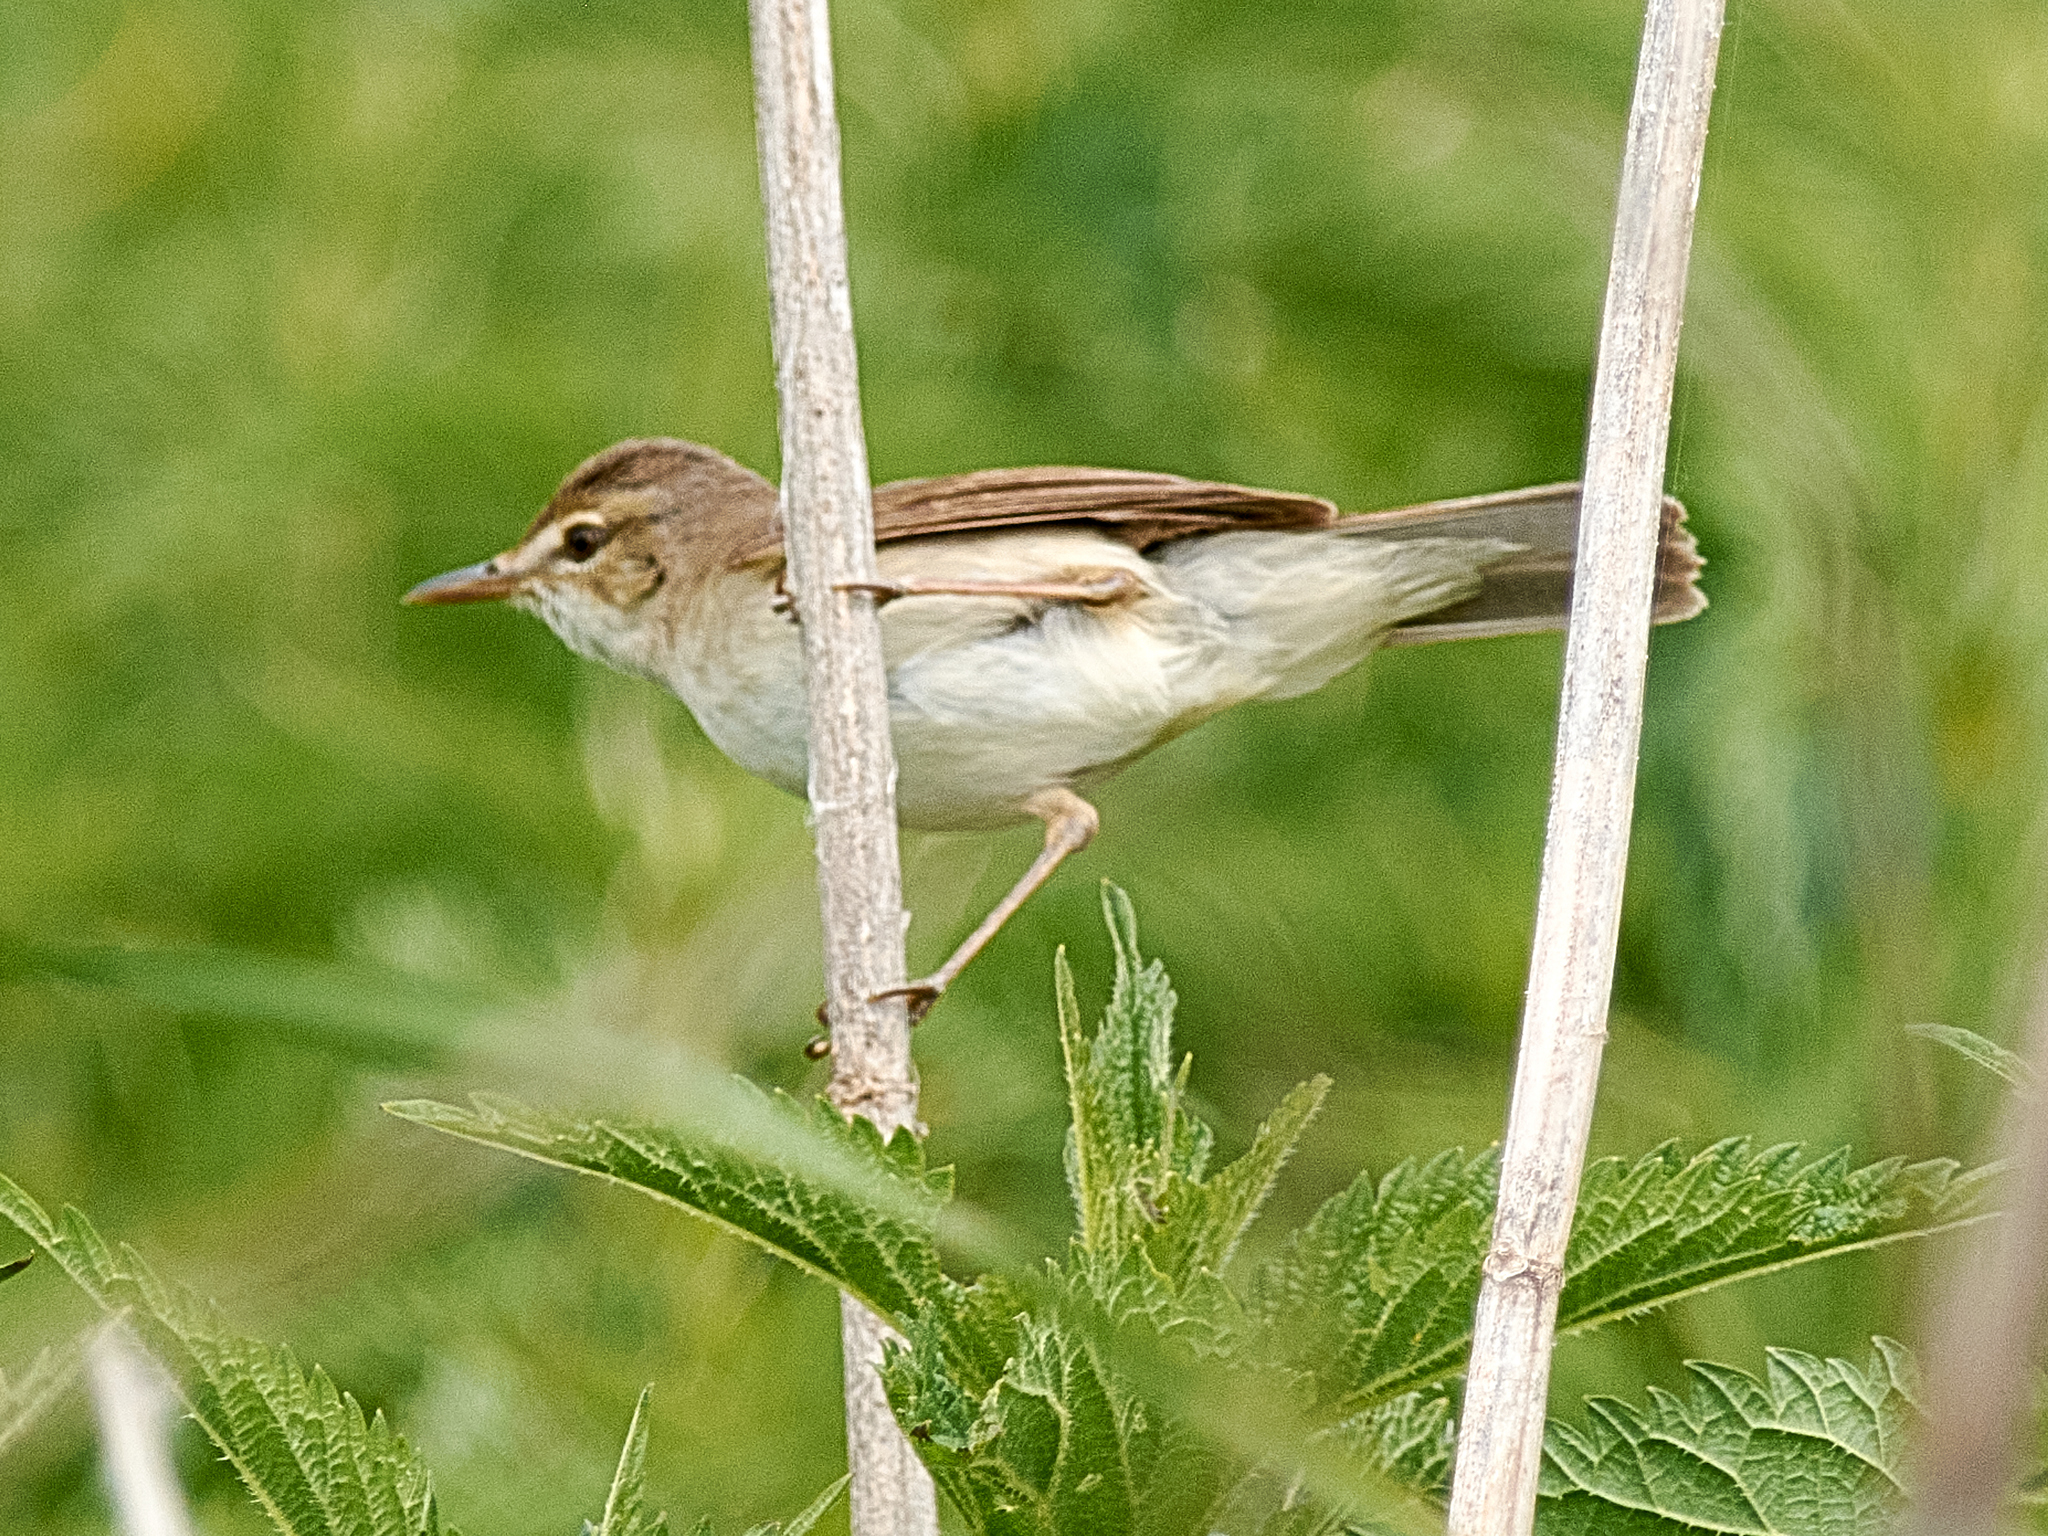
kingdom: Animalia
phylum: Chordata
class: Aves
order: Passeriformes
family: Acrocephalidae
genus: Iduna
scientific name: Iduna caligata
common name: Booted warbler
